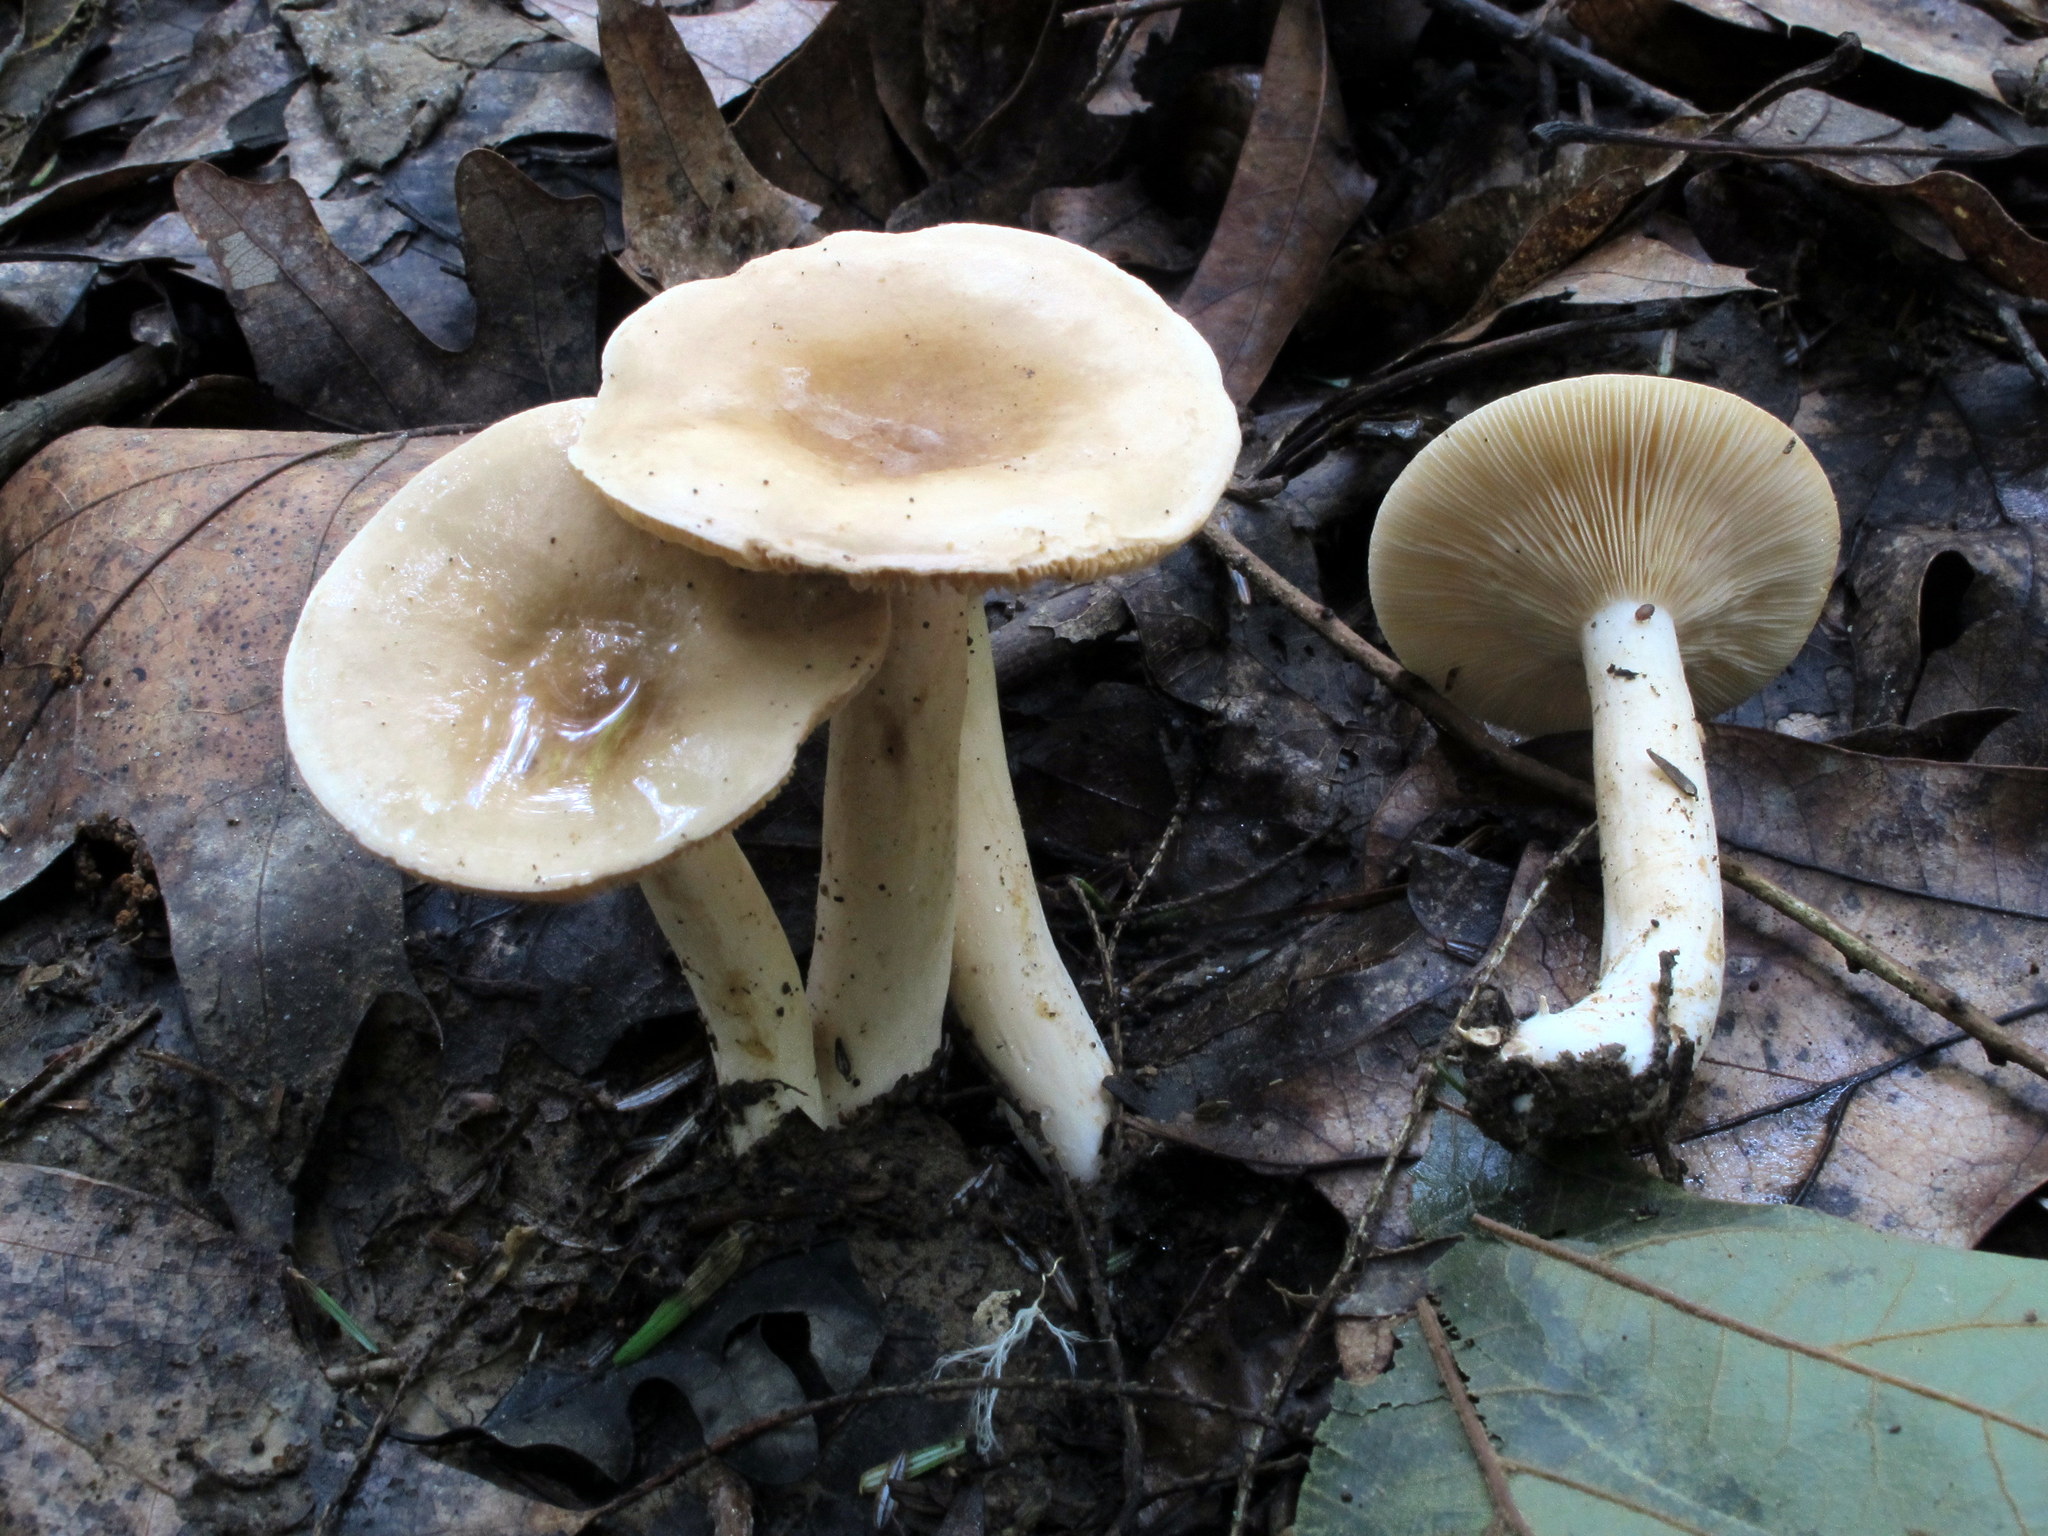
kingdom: Fungi
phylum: Basidiomycota
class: Agaricomycetes
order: Russulales
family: Russulaceae
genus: Lactarius
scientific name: Lactarius fumosus
